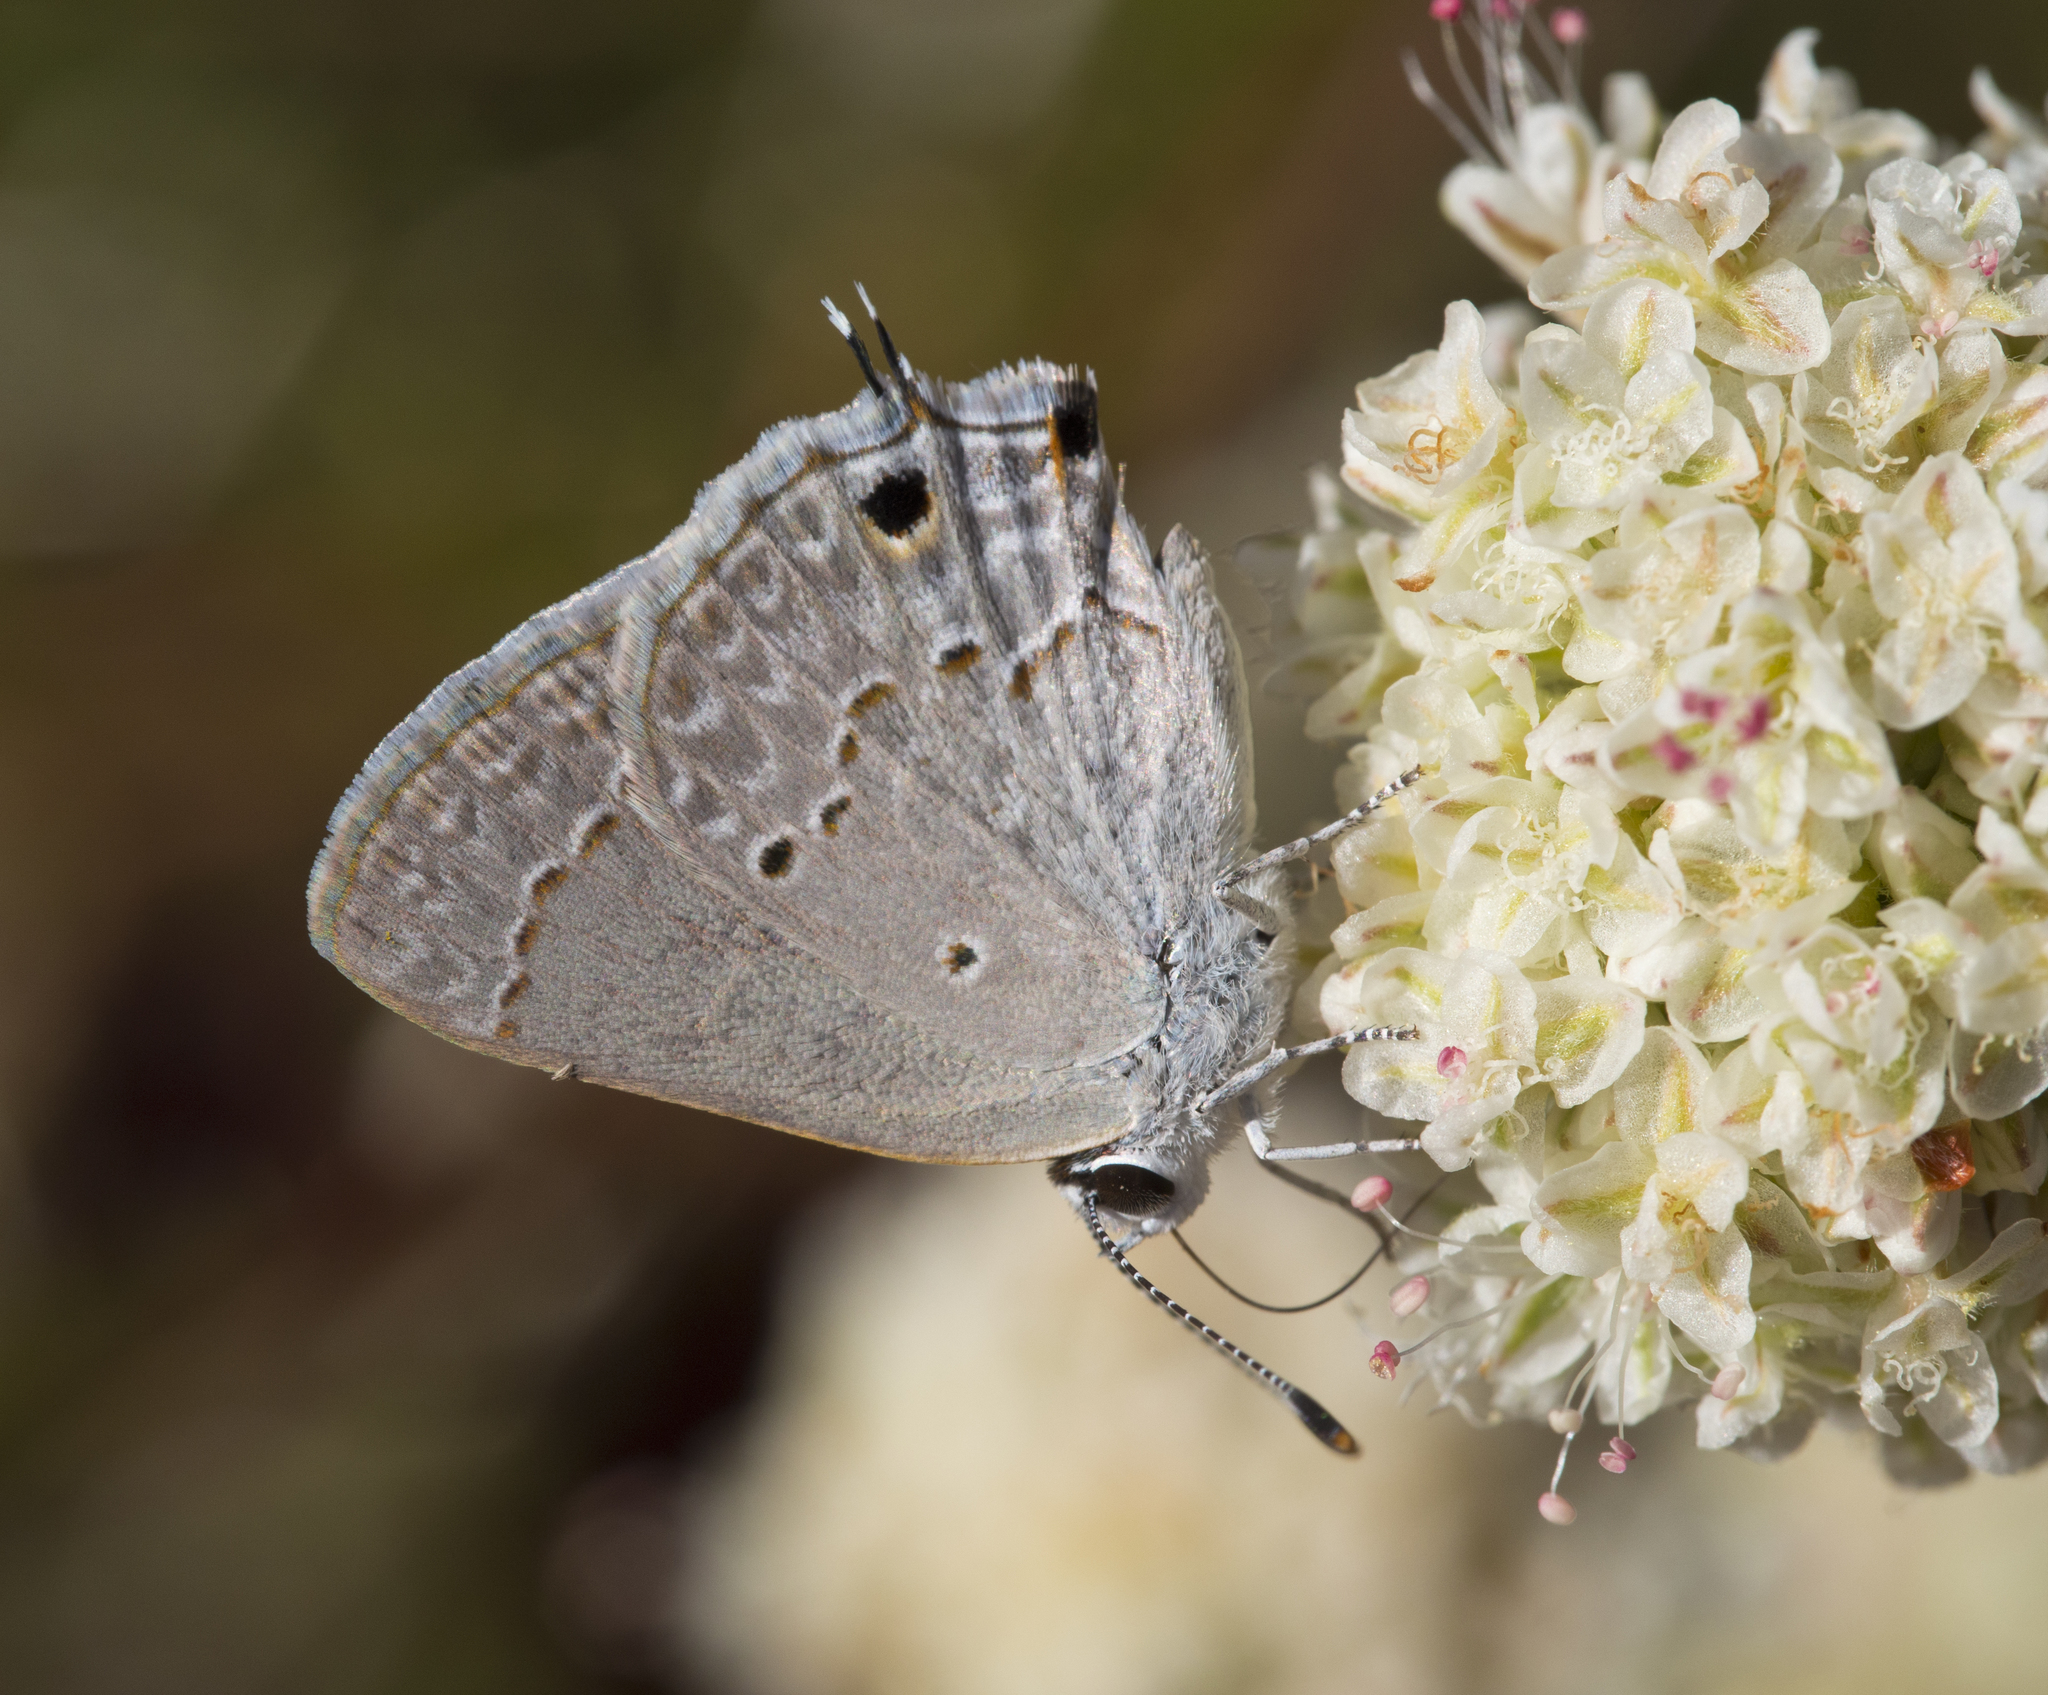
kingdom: Animalia
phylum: Arthropoda
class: Insecta
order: Lepidoptera
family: Lycaenidae
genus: Callicista
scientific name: Callicista columella
